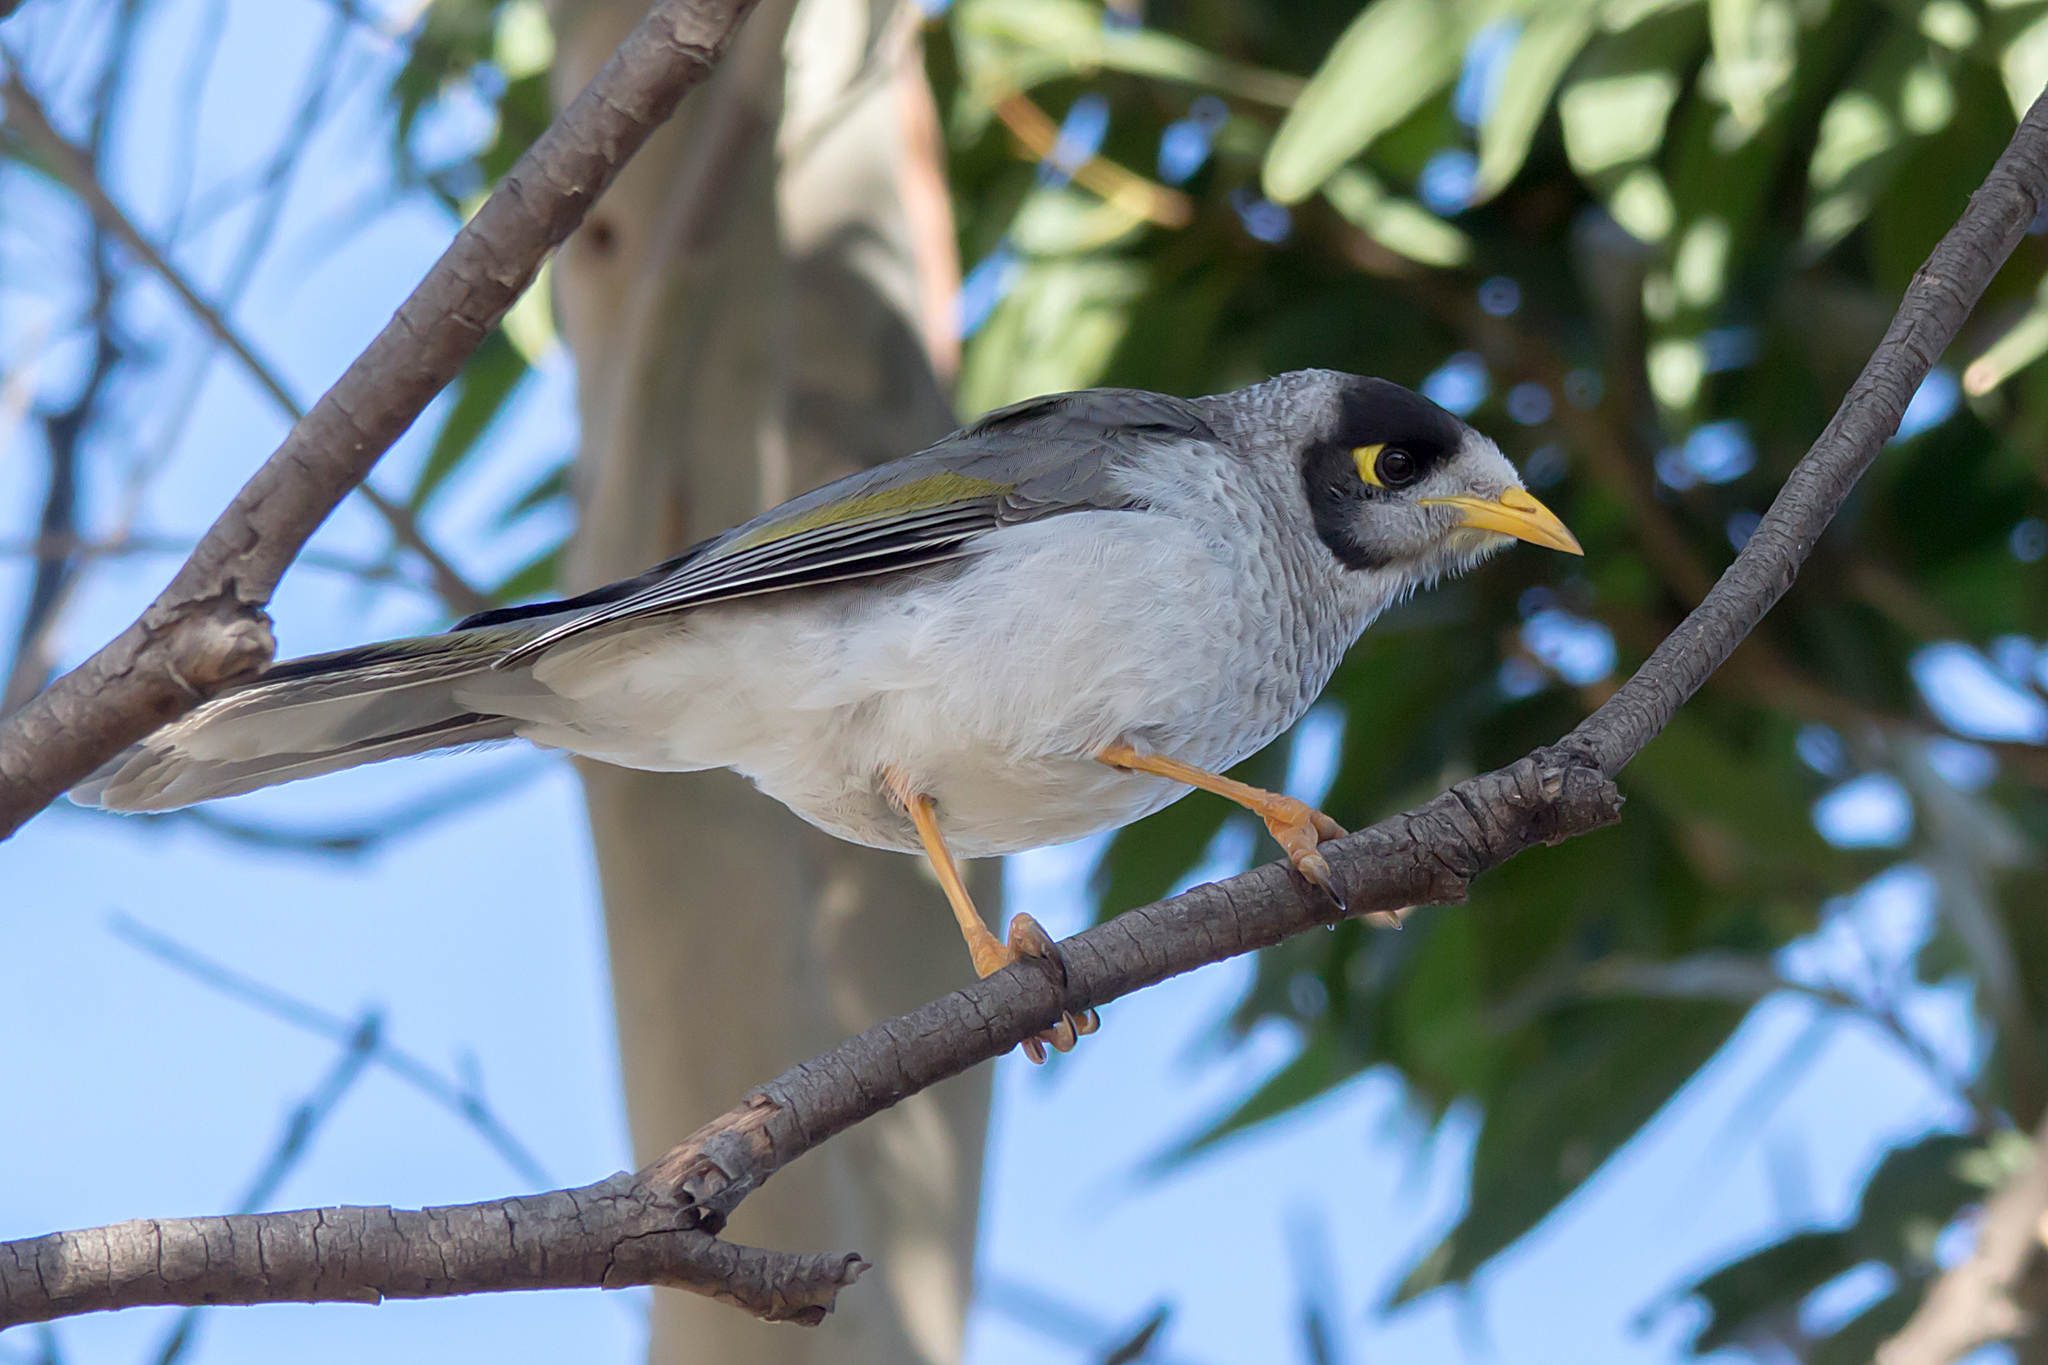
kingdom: Animalia
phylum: Chordata
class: Aves
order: Passeriformes
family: Meliphagidae
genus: Manorina
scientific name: Manorina melanocephala
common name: Noisy miner
